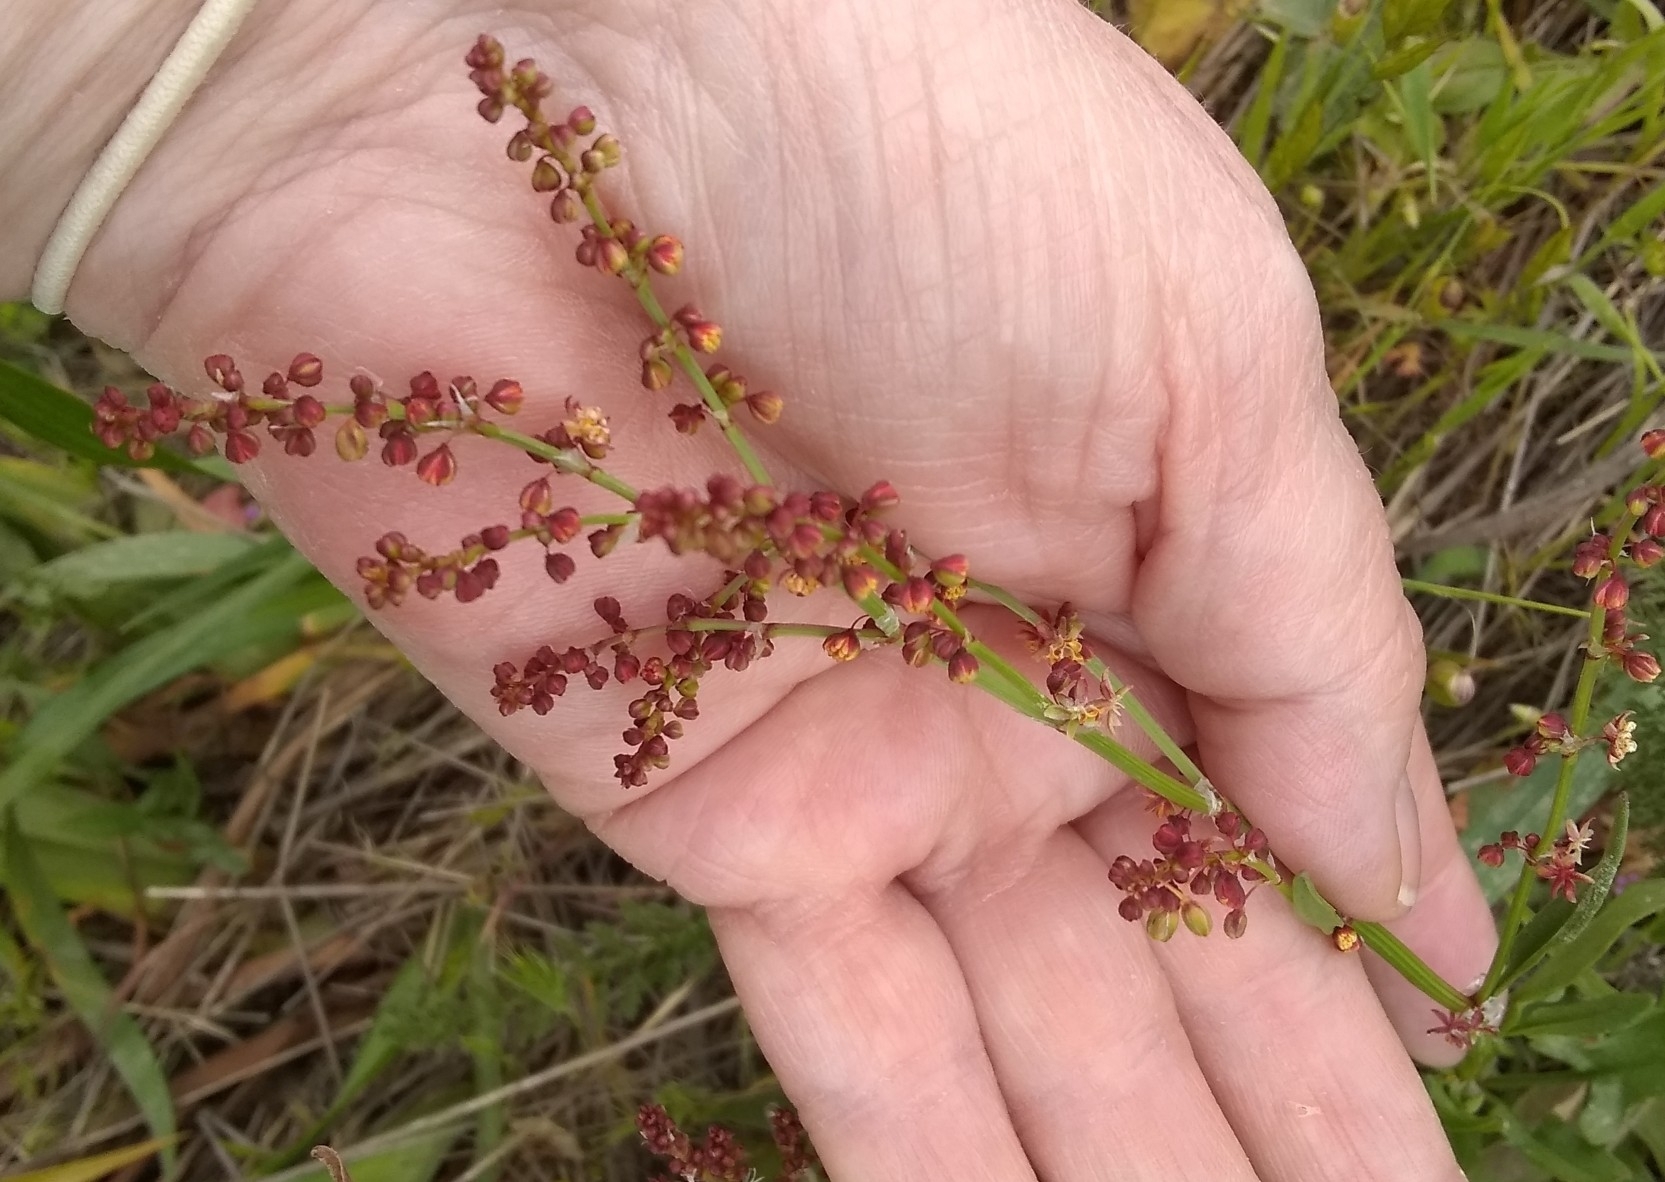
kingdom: Plantae
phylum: Tracheophyta
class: Magnoliopsida
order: Caryophyllales
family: Polygonaceae
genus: Rumex
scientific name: Rumex acetosella
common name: Common sheep sorrel
